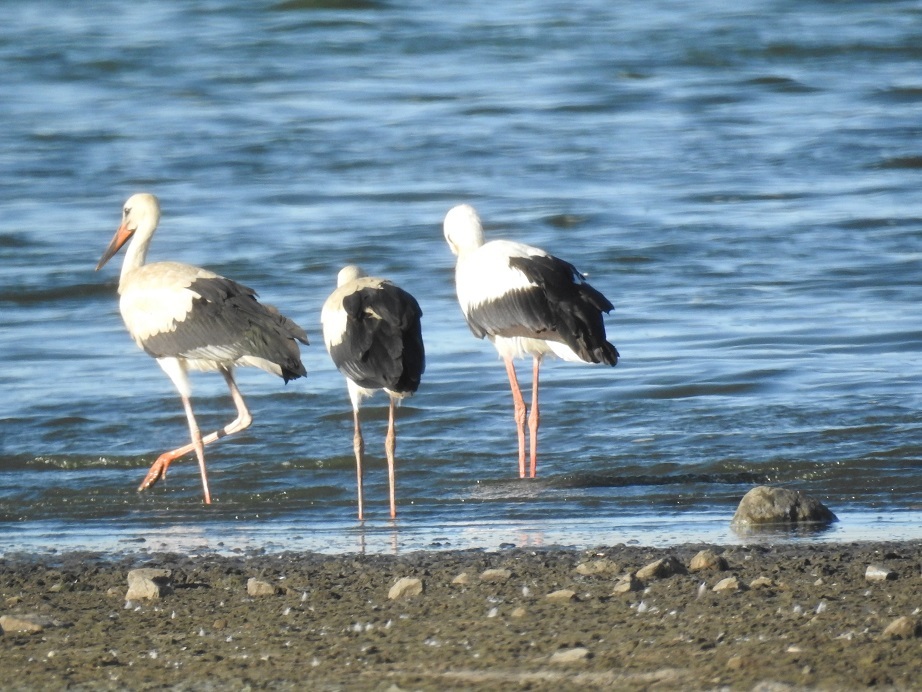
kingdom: Animalia
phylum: Chordata
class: Aves
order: Ciconiiformes
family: Ciconiidae
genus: Ciconia
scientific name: Ciconia ciconia
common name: White stork
